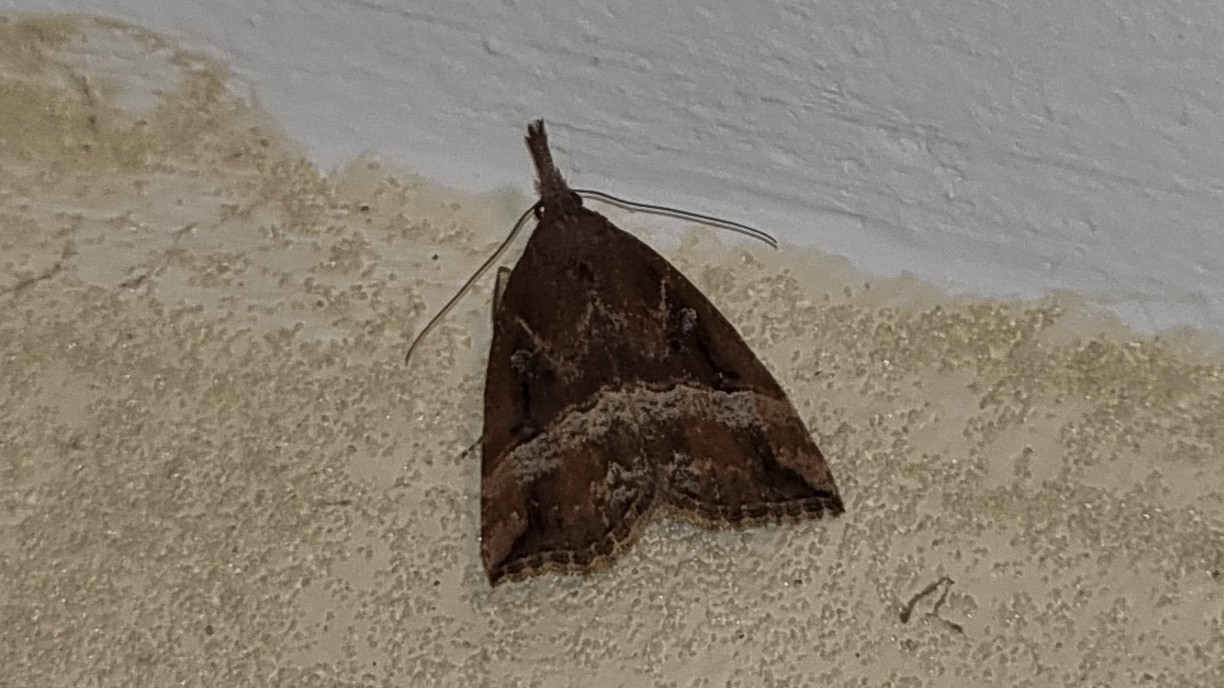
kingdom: Animalia
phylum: Arthropoda
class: Insecta
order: Lepidoptera
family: Erebidae
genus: Hypena
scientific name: Hypena rostralis
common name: Buttoned snout
